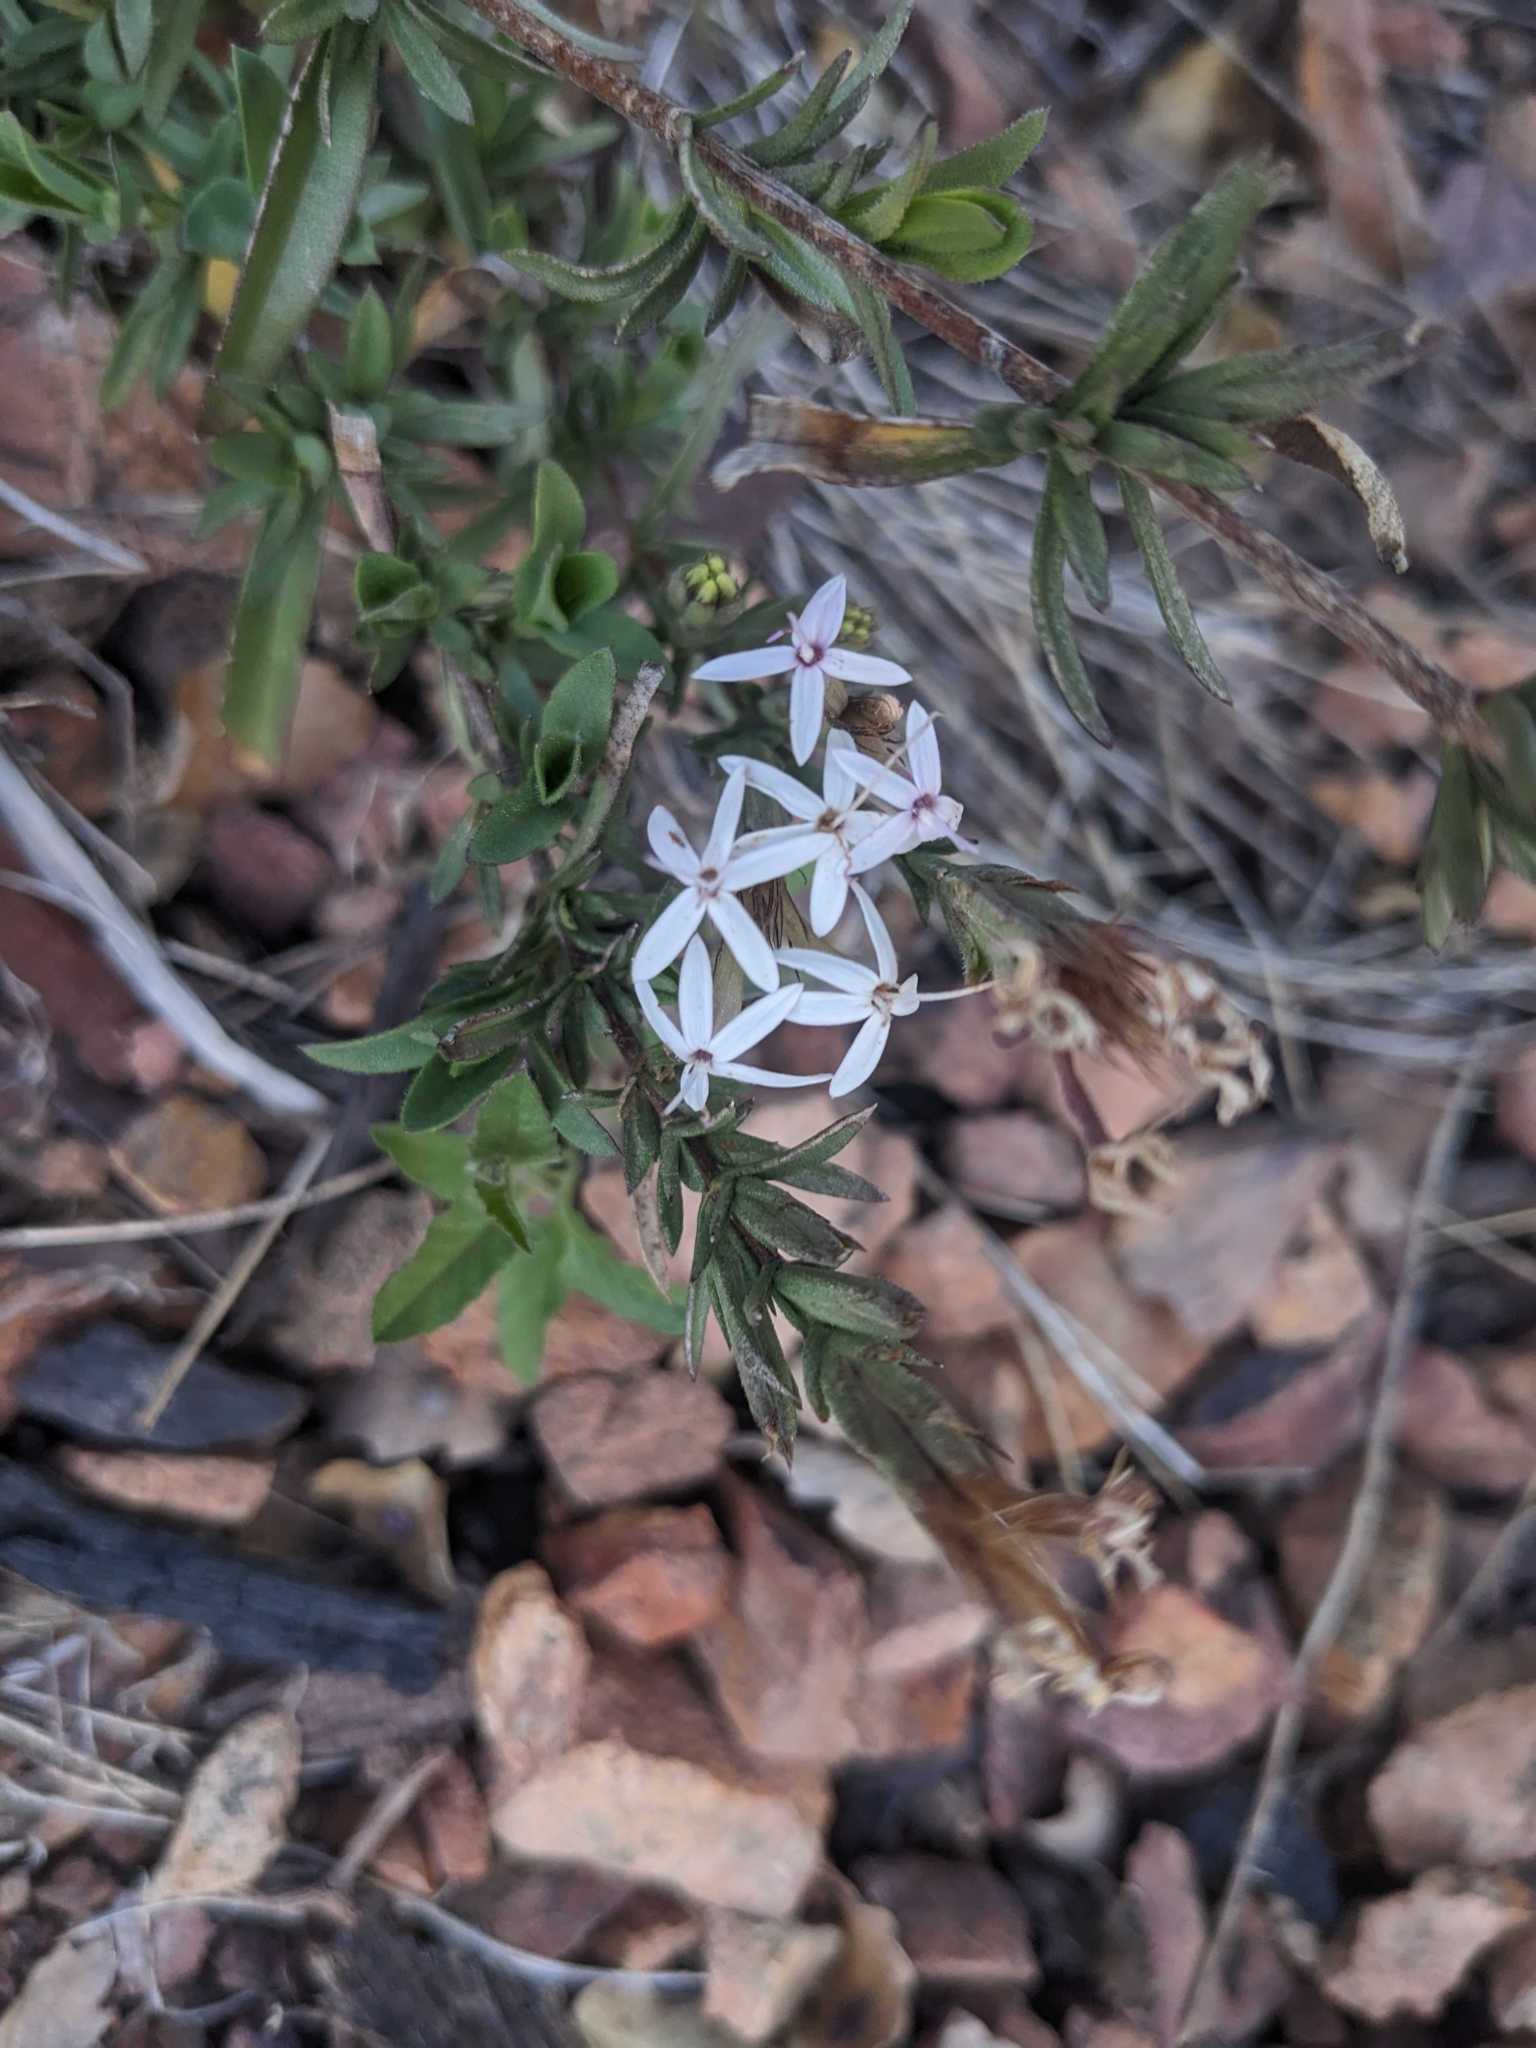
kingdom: Plantae
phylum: Tracheophyta
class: Magnoliopsida
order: Asterales
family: Asteraceae
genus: Carphochaete
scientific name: Carphochaete bigelovii
